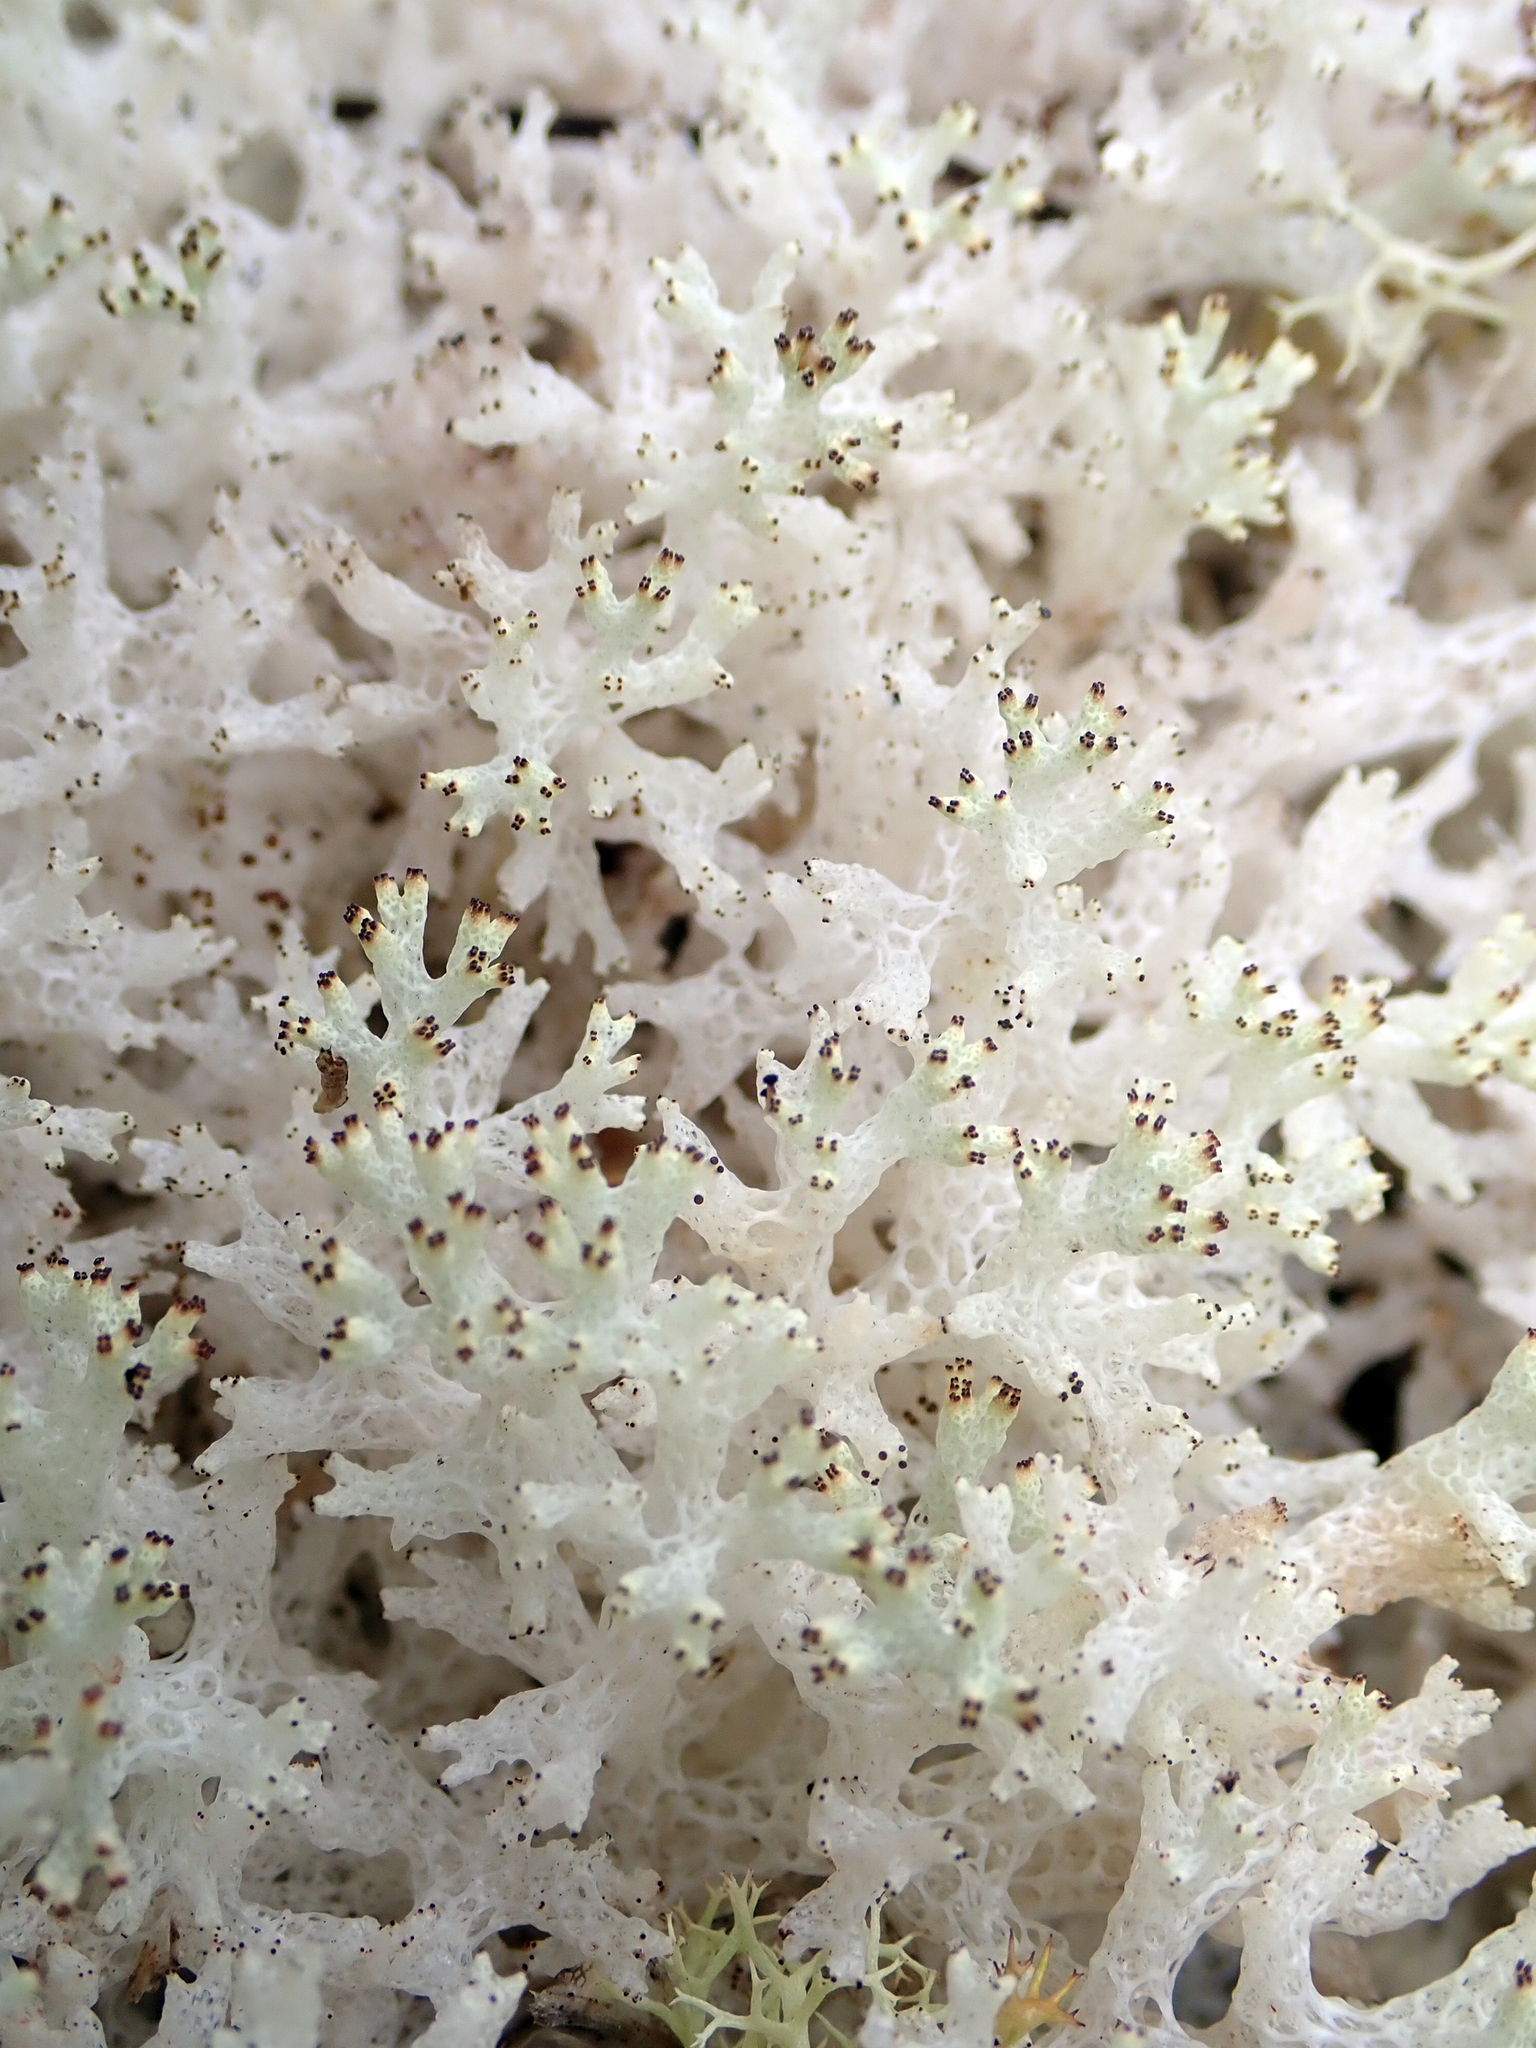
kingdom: Fungi
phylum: Ascomycota
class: Lecanoromycetes
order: Lecanorales
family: Cladoniaceae
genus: Pulchrocladia
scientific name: Pulchrocladia retipora
